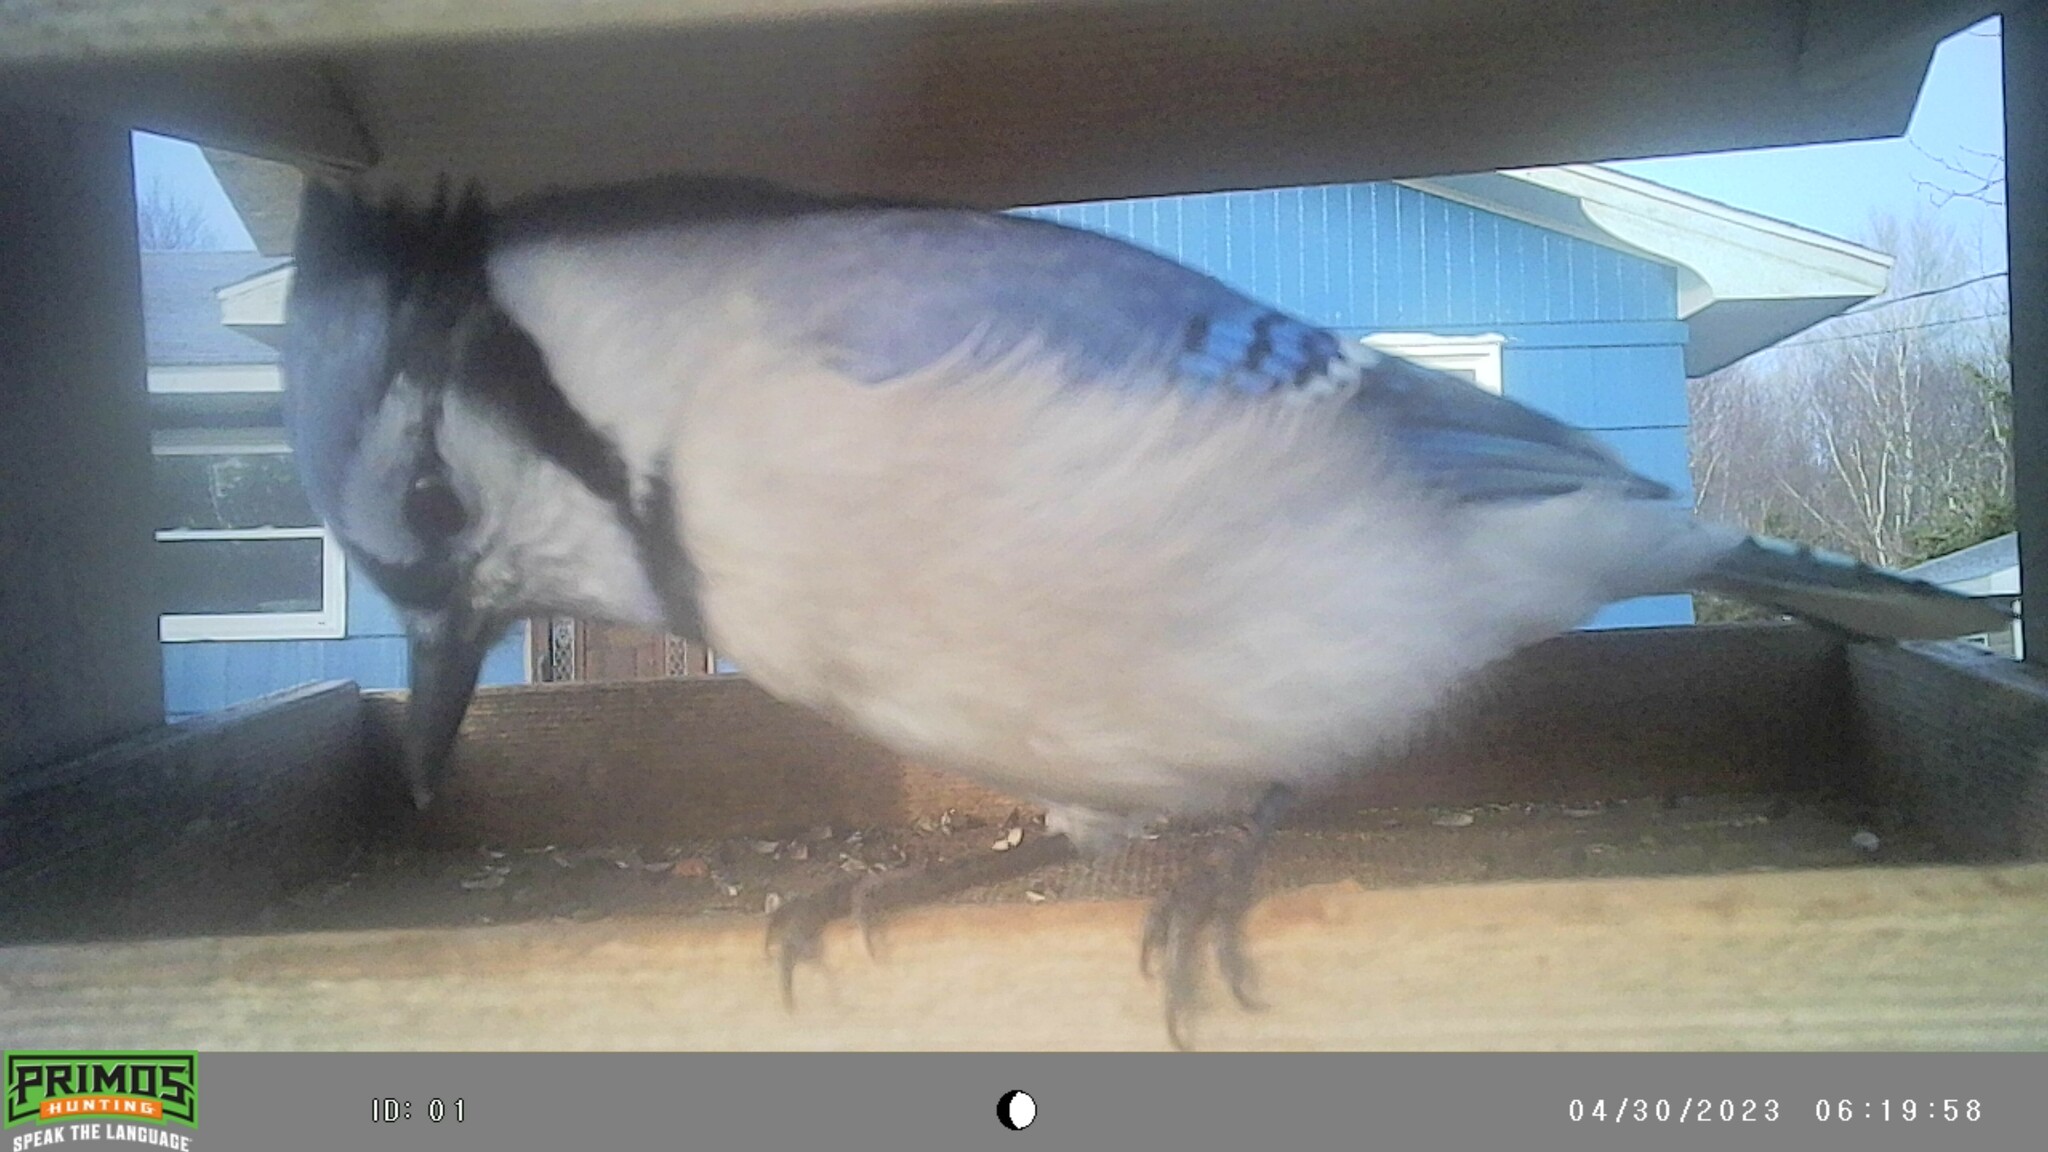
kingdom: Animalia
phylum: Chordata
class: Aves
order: Passeriformes
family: Corvidae
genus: Cyanocitta
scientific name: Cyanocitta cristata
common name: Blue jay
